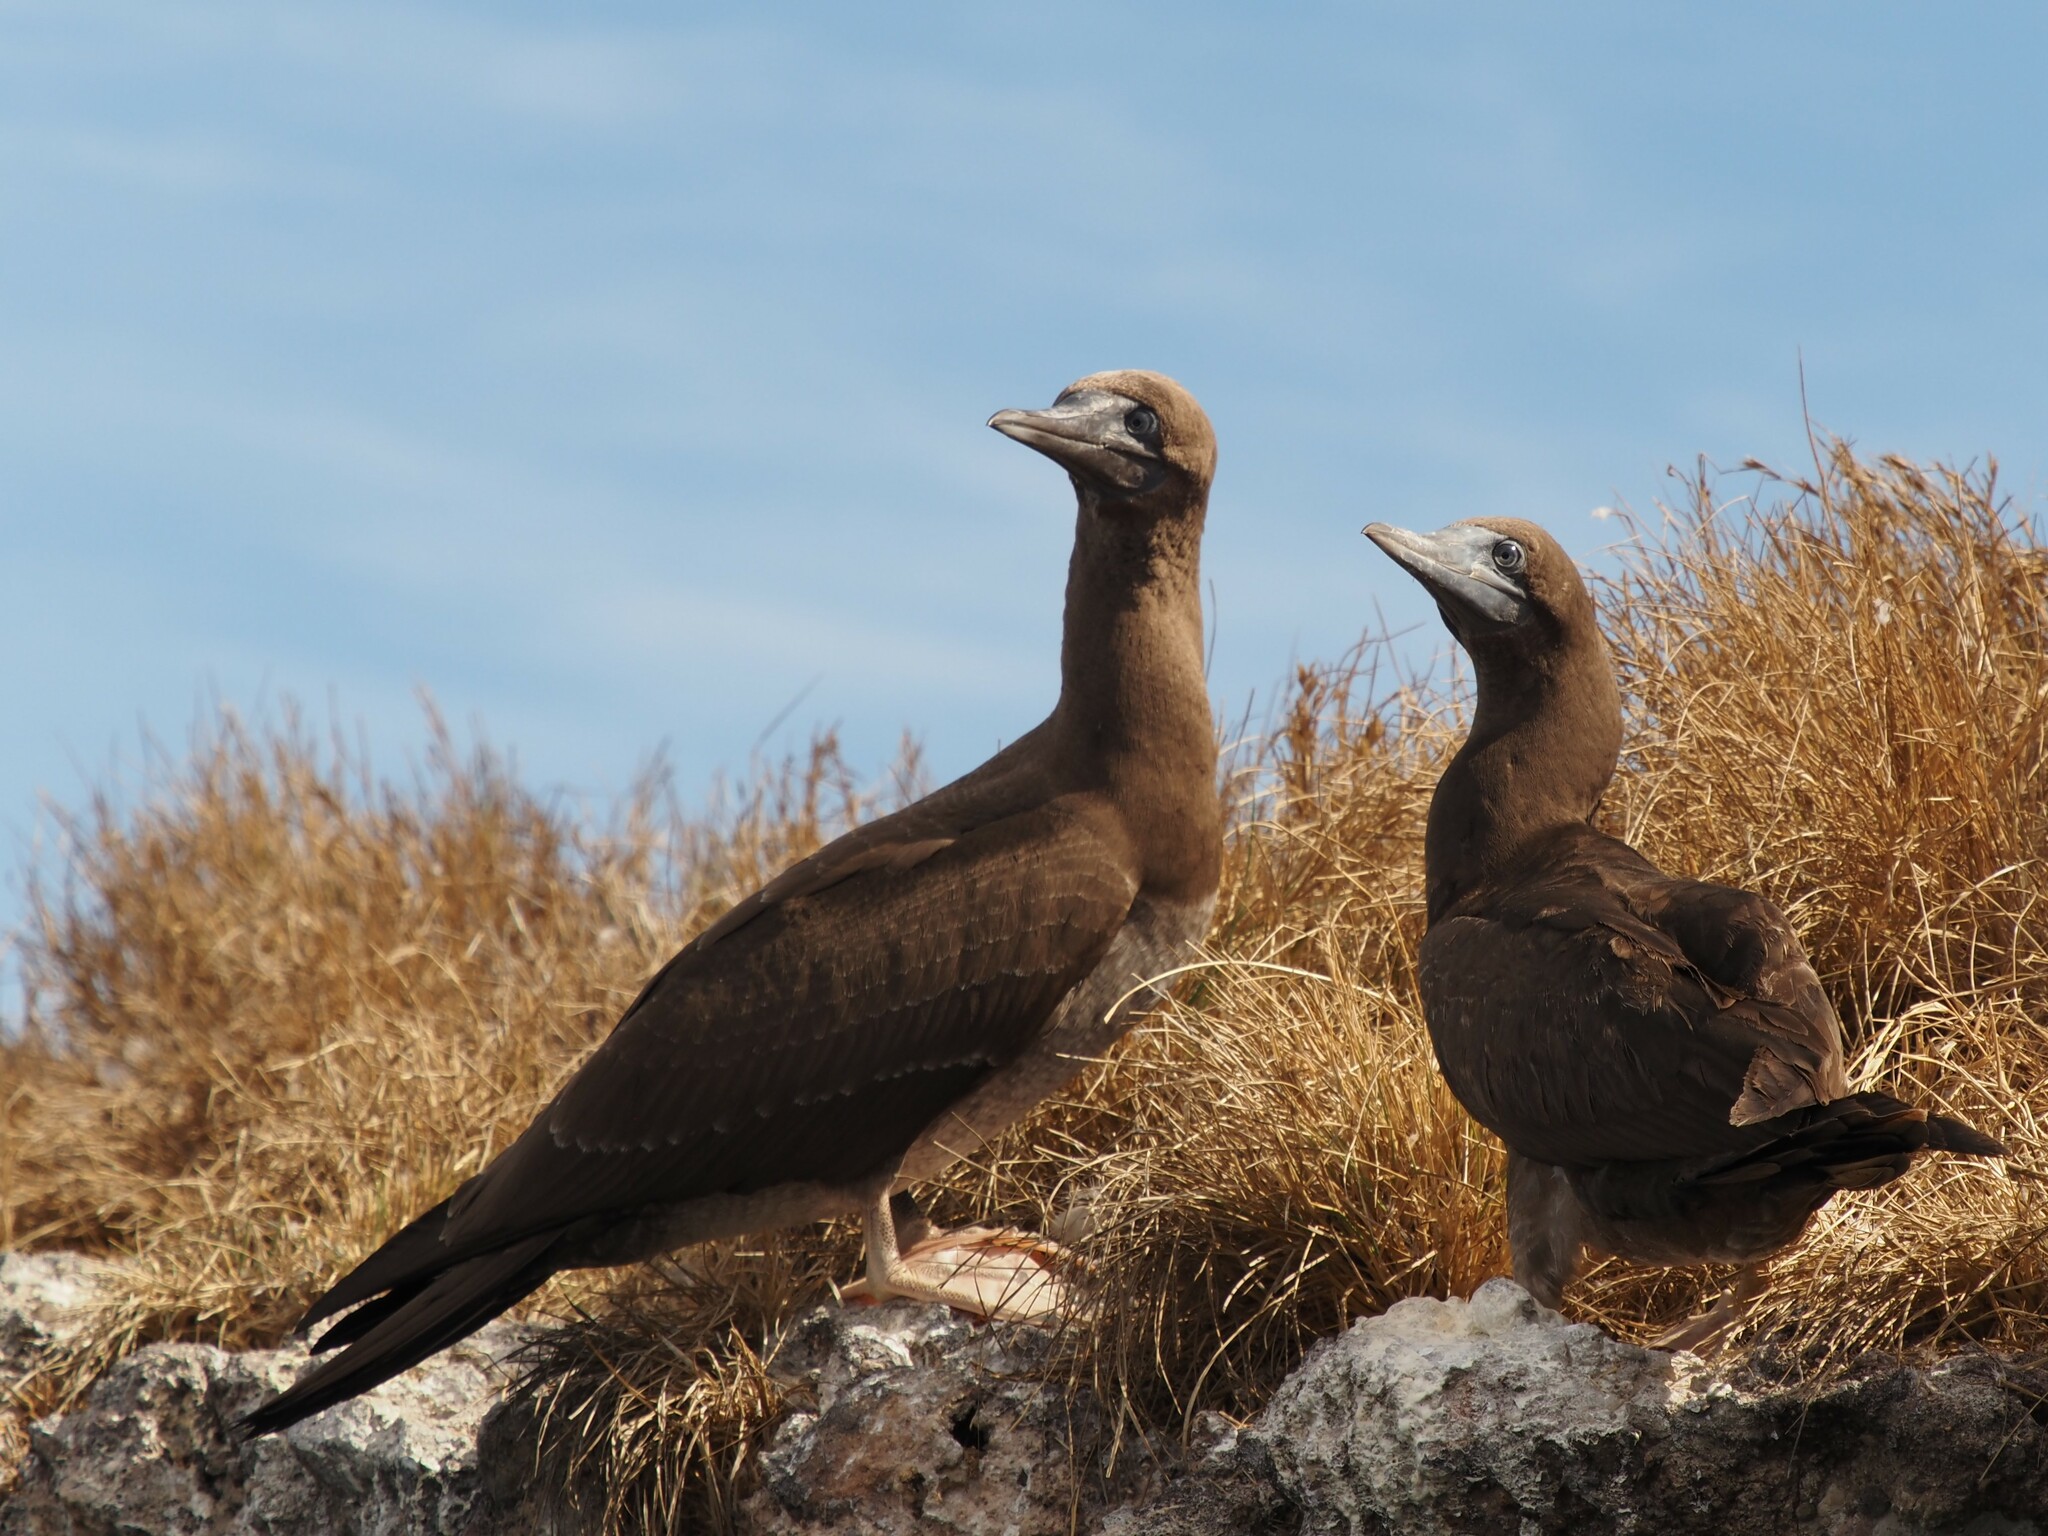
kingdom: Animalia
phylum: Chordata
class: Aves
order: Suliformes
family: Sulidae
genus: Sula
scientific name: Sula leucogaster
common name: Brown booby
